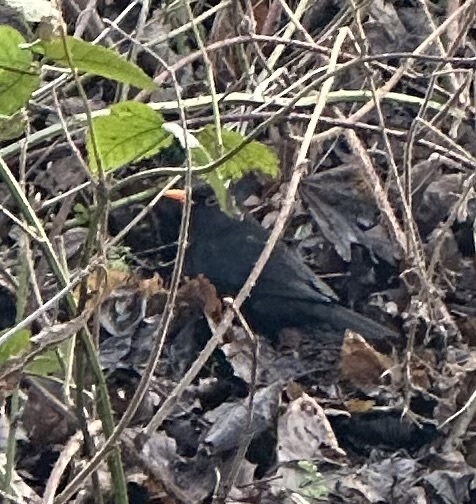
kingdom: Animalia
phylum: Chordata
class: Aves
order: Passeriformes
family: Turdidae
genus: Turdus
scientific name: Turdus merula
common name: Common blackbird
